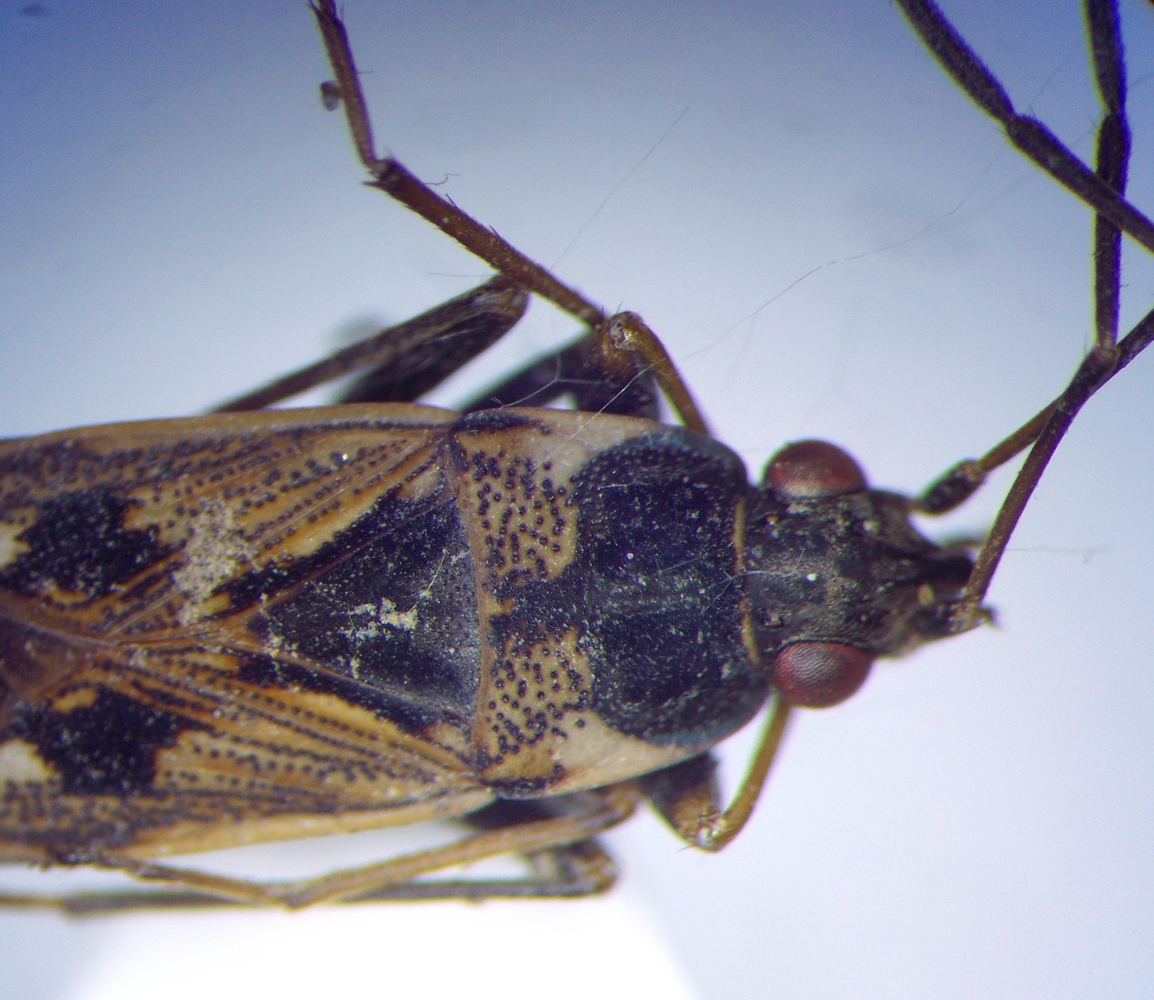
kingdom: Animalia
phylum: Arthropoda
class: Insecta
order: Hemiptera
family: Rhyparochromidae
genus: Rhyparochromus
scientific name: Rhyparochromus vulgaris
